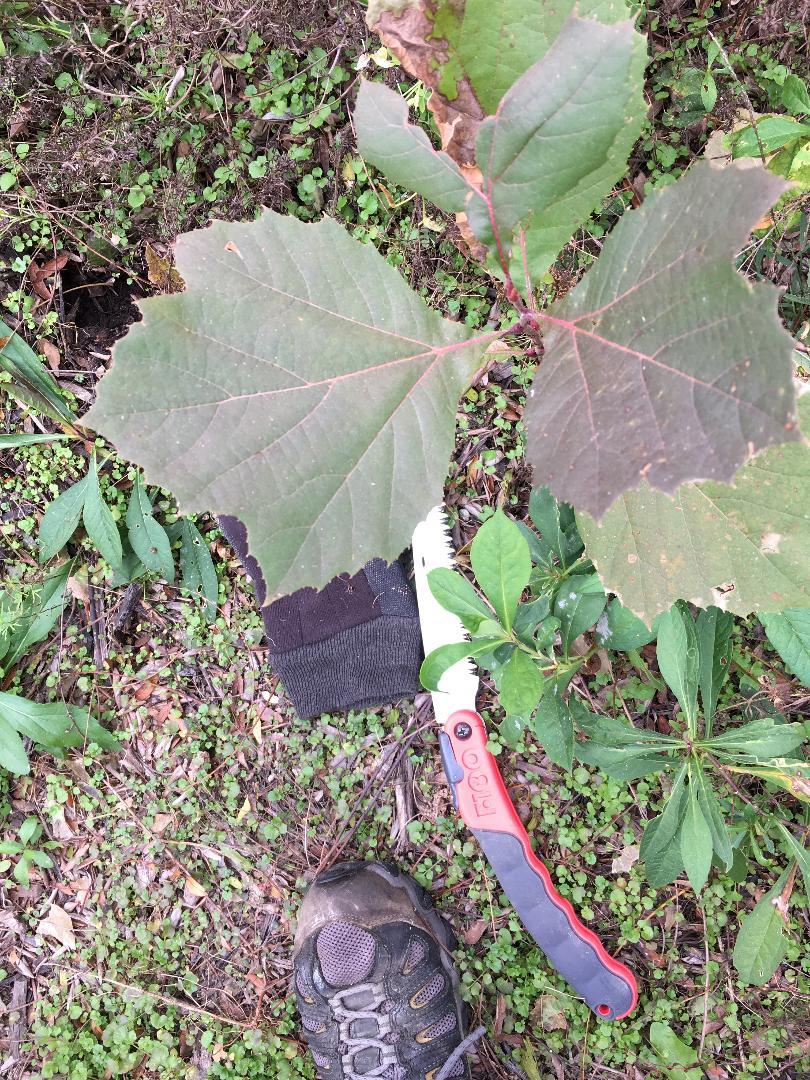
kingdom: Plantae
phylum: Tracheophyta
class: Magnoliopsida
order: Proteales
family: Platanaceae
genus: Platanus
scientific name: Platanus occidentalis
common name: American sycamore
